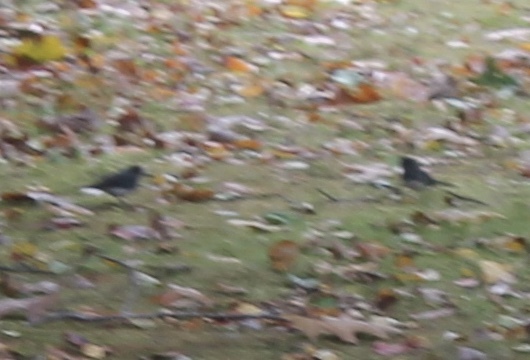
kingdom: Animalia
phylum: Chordata
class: Aves
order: Passeriformes
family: Passerellidae
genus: Junco
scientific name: Junco hyemalis
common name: Dark-eyed junco
